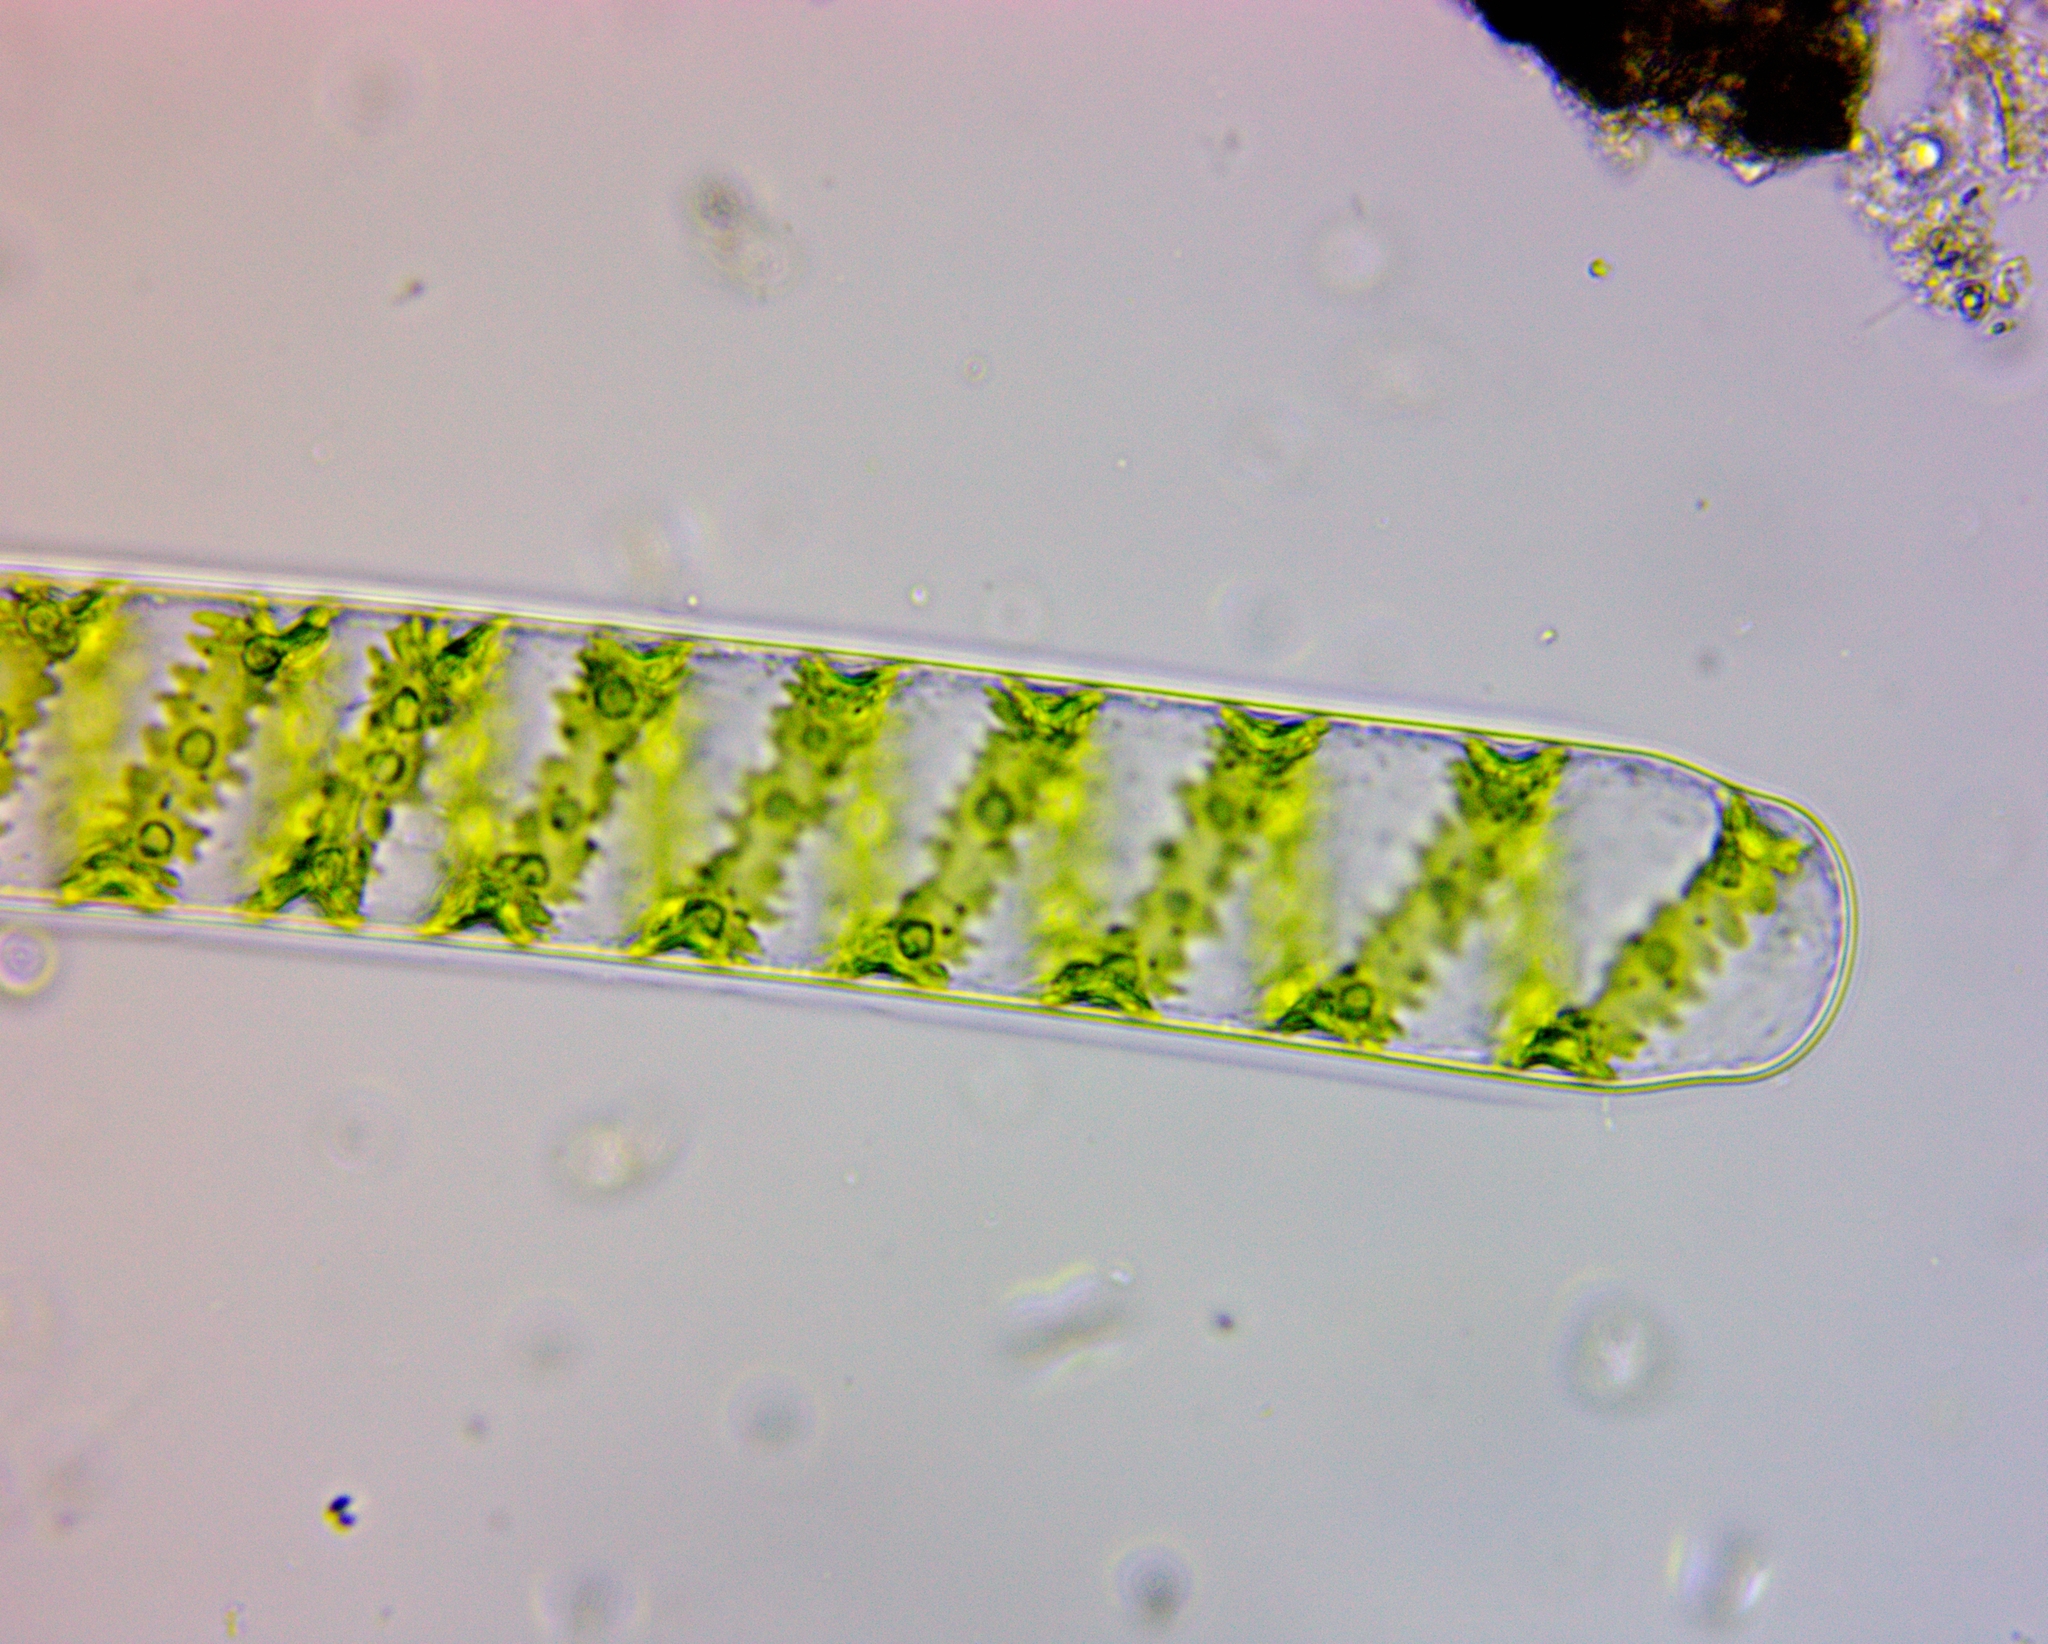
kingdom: Plantae
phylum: Charophyta
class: Zygnematophyceae
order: Zygnematales
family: Zygnemataceae
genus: Spirogyra
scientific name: Spirogyra
